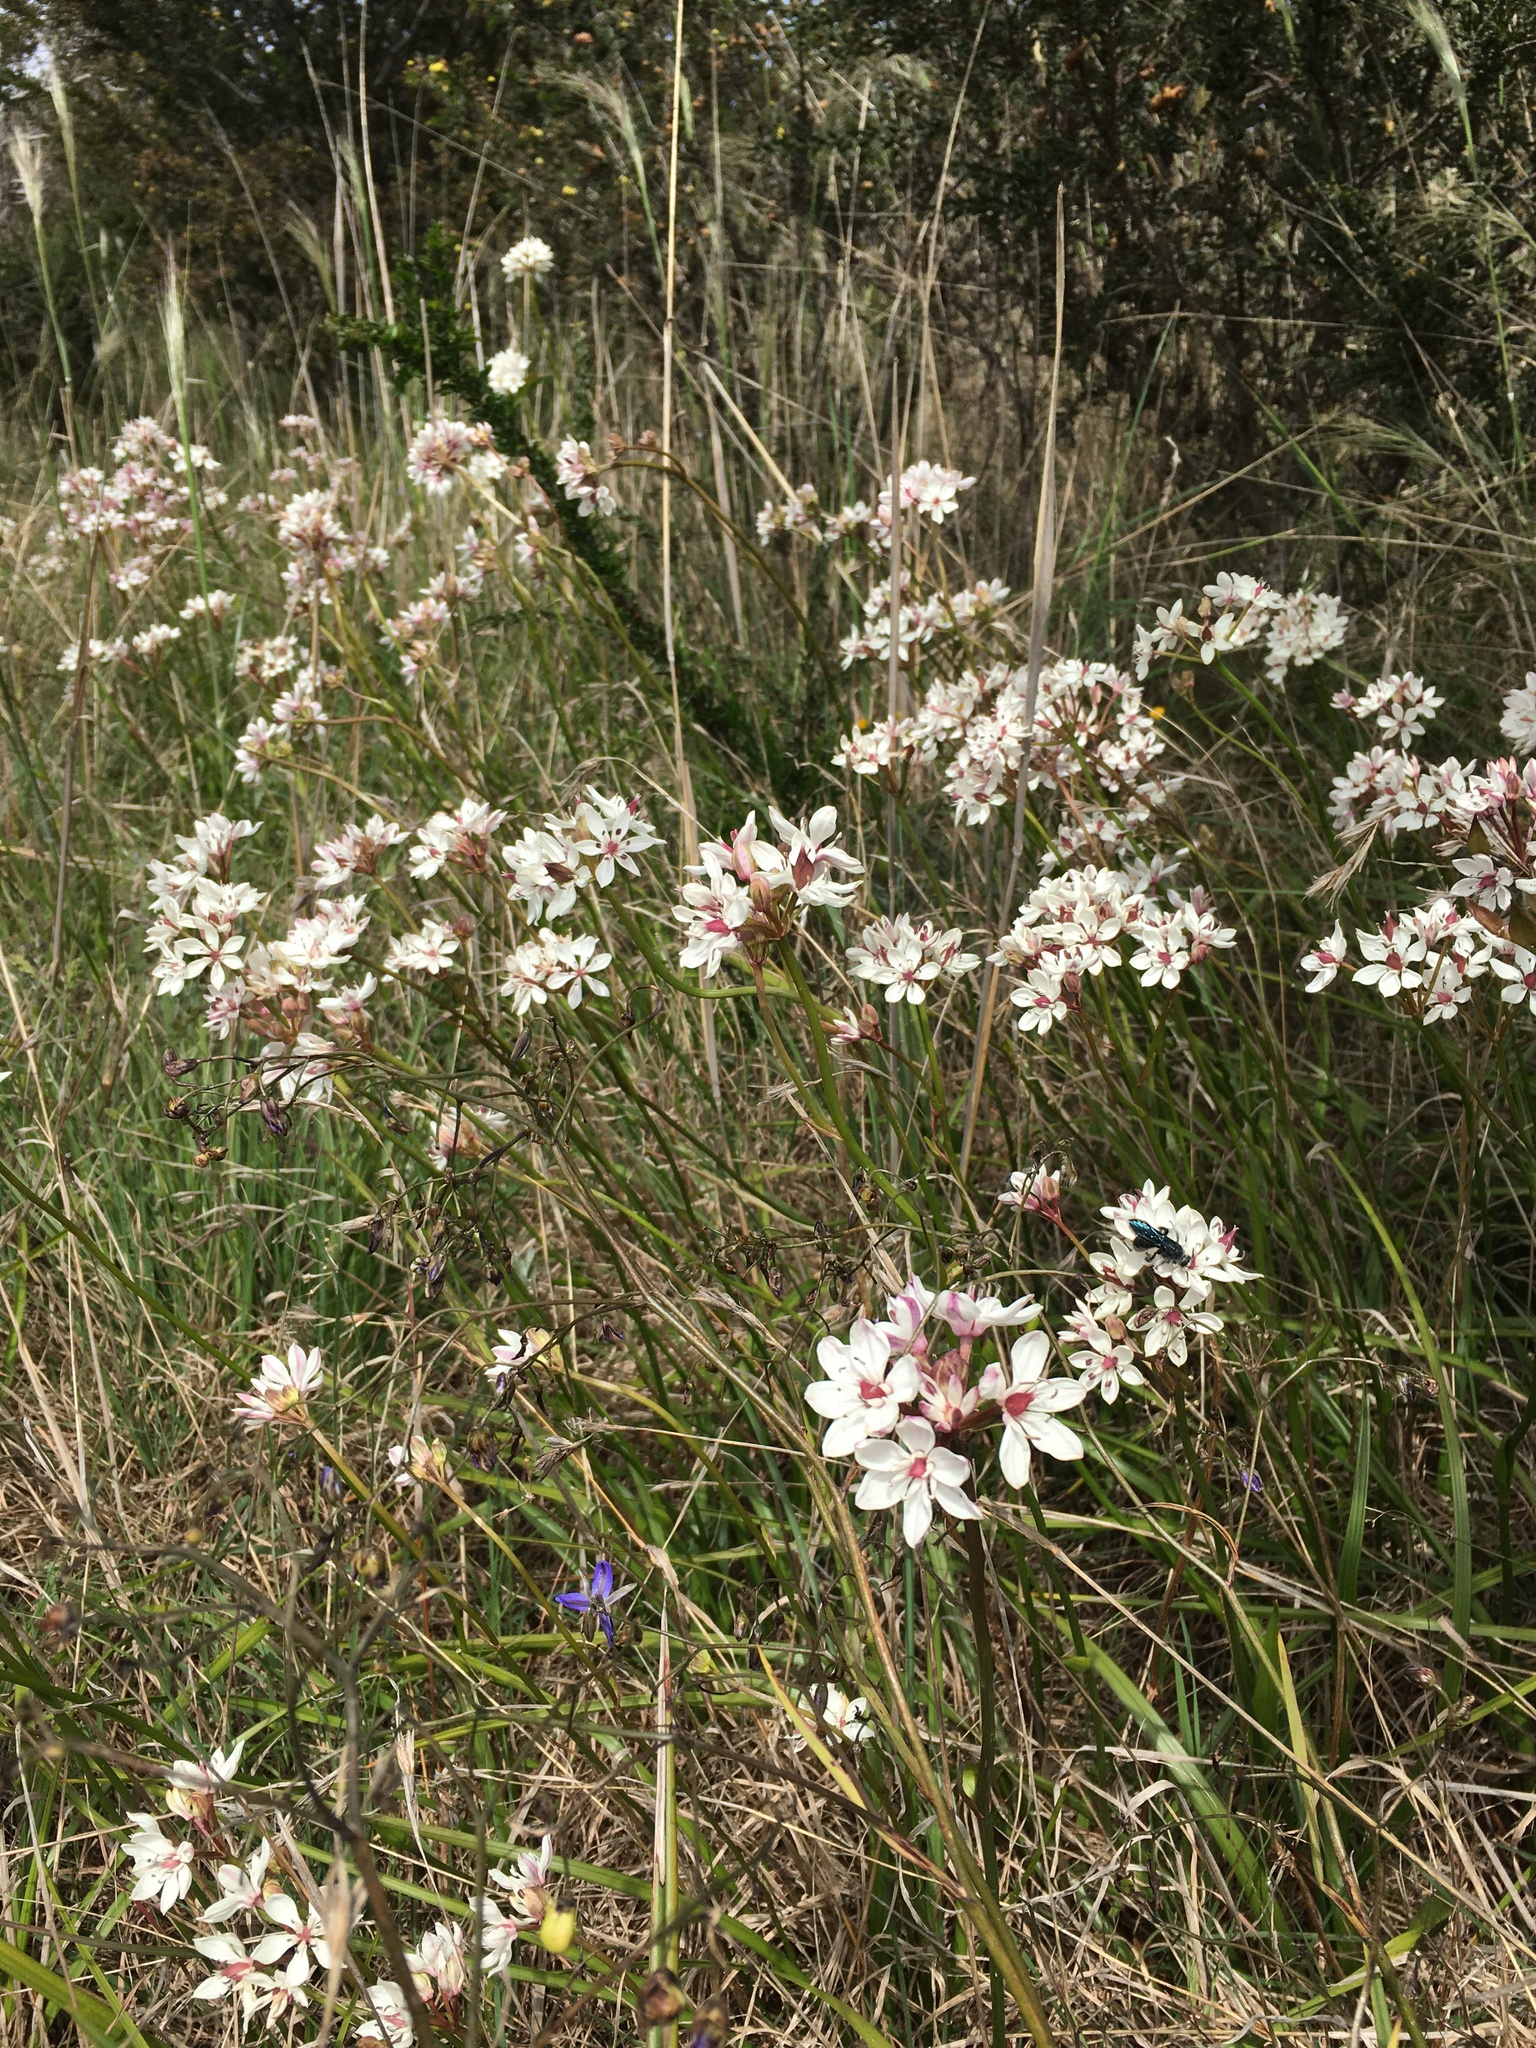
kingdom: Plantae
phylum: Tracheophyta
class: Liliopsida
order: Liliales
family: Colchicaceae
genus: Burchardia
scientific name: Burchardia umbellata
